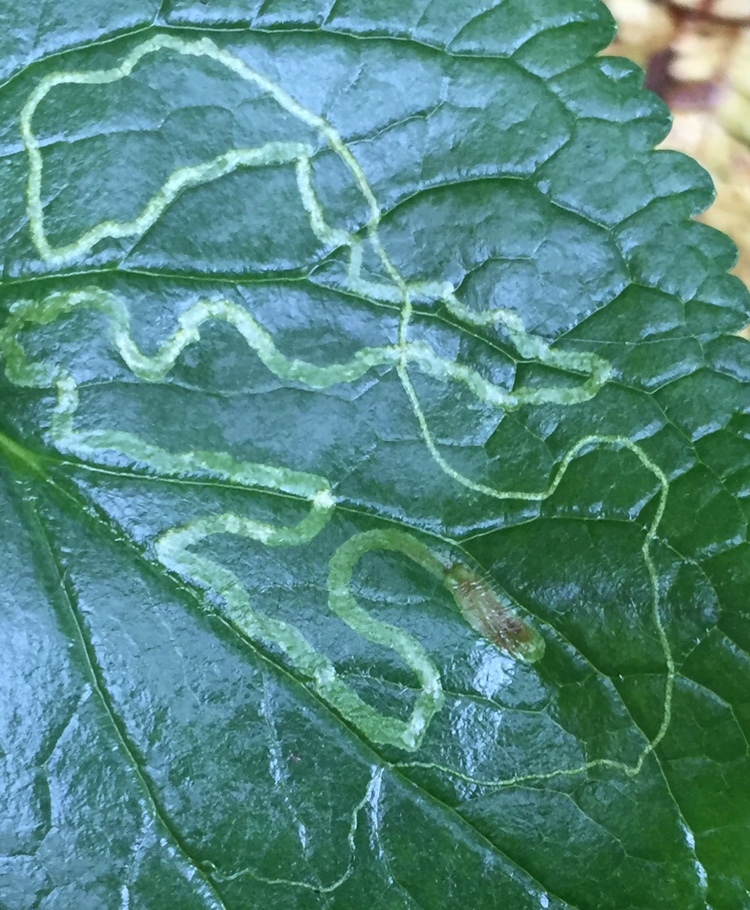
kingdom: Animalia
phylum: Arthropoda
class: Insecta
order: Lepidoptera
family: Gracillariidae
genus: Phyllocnistis
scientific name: Phyllocnistis insignis
